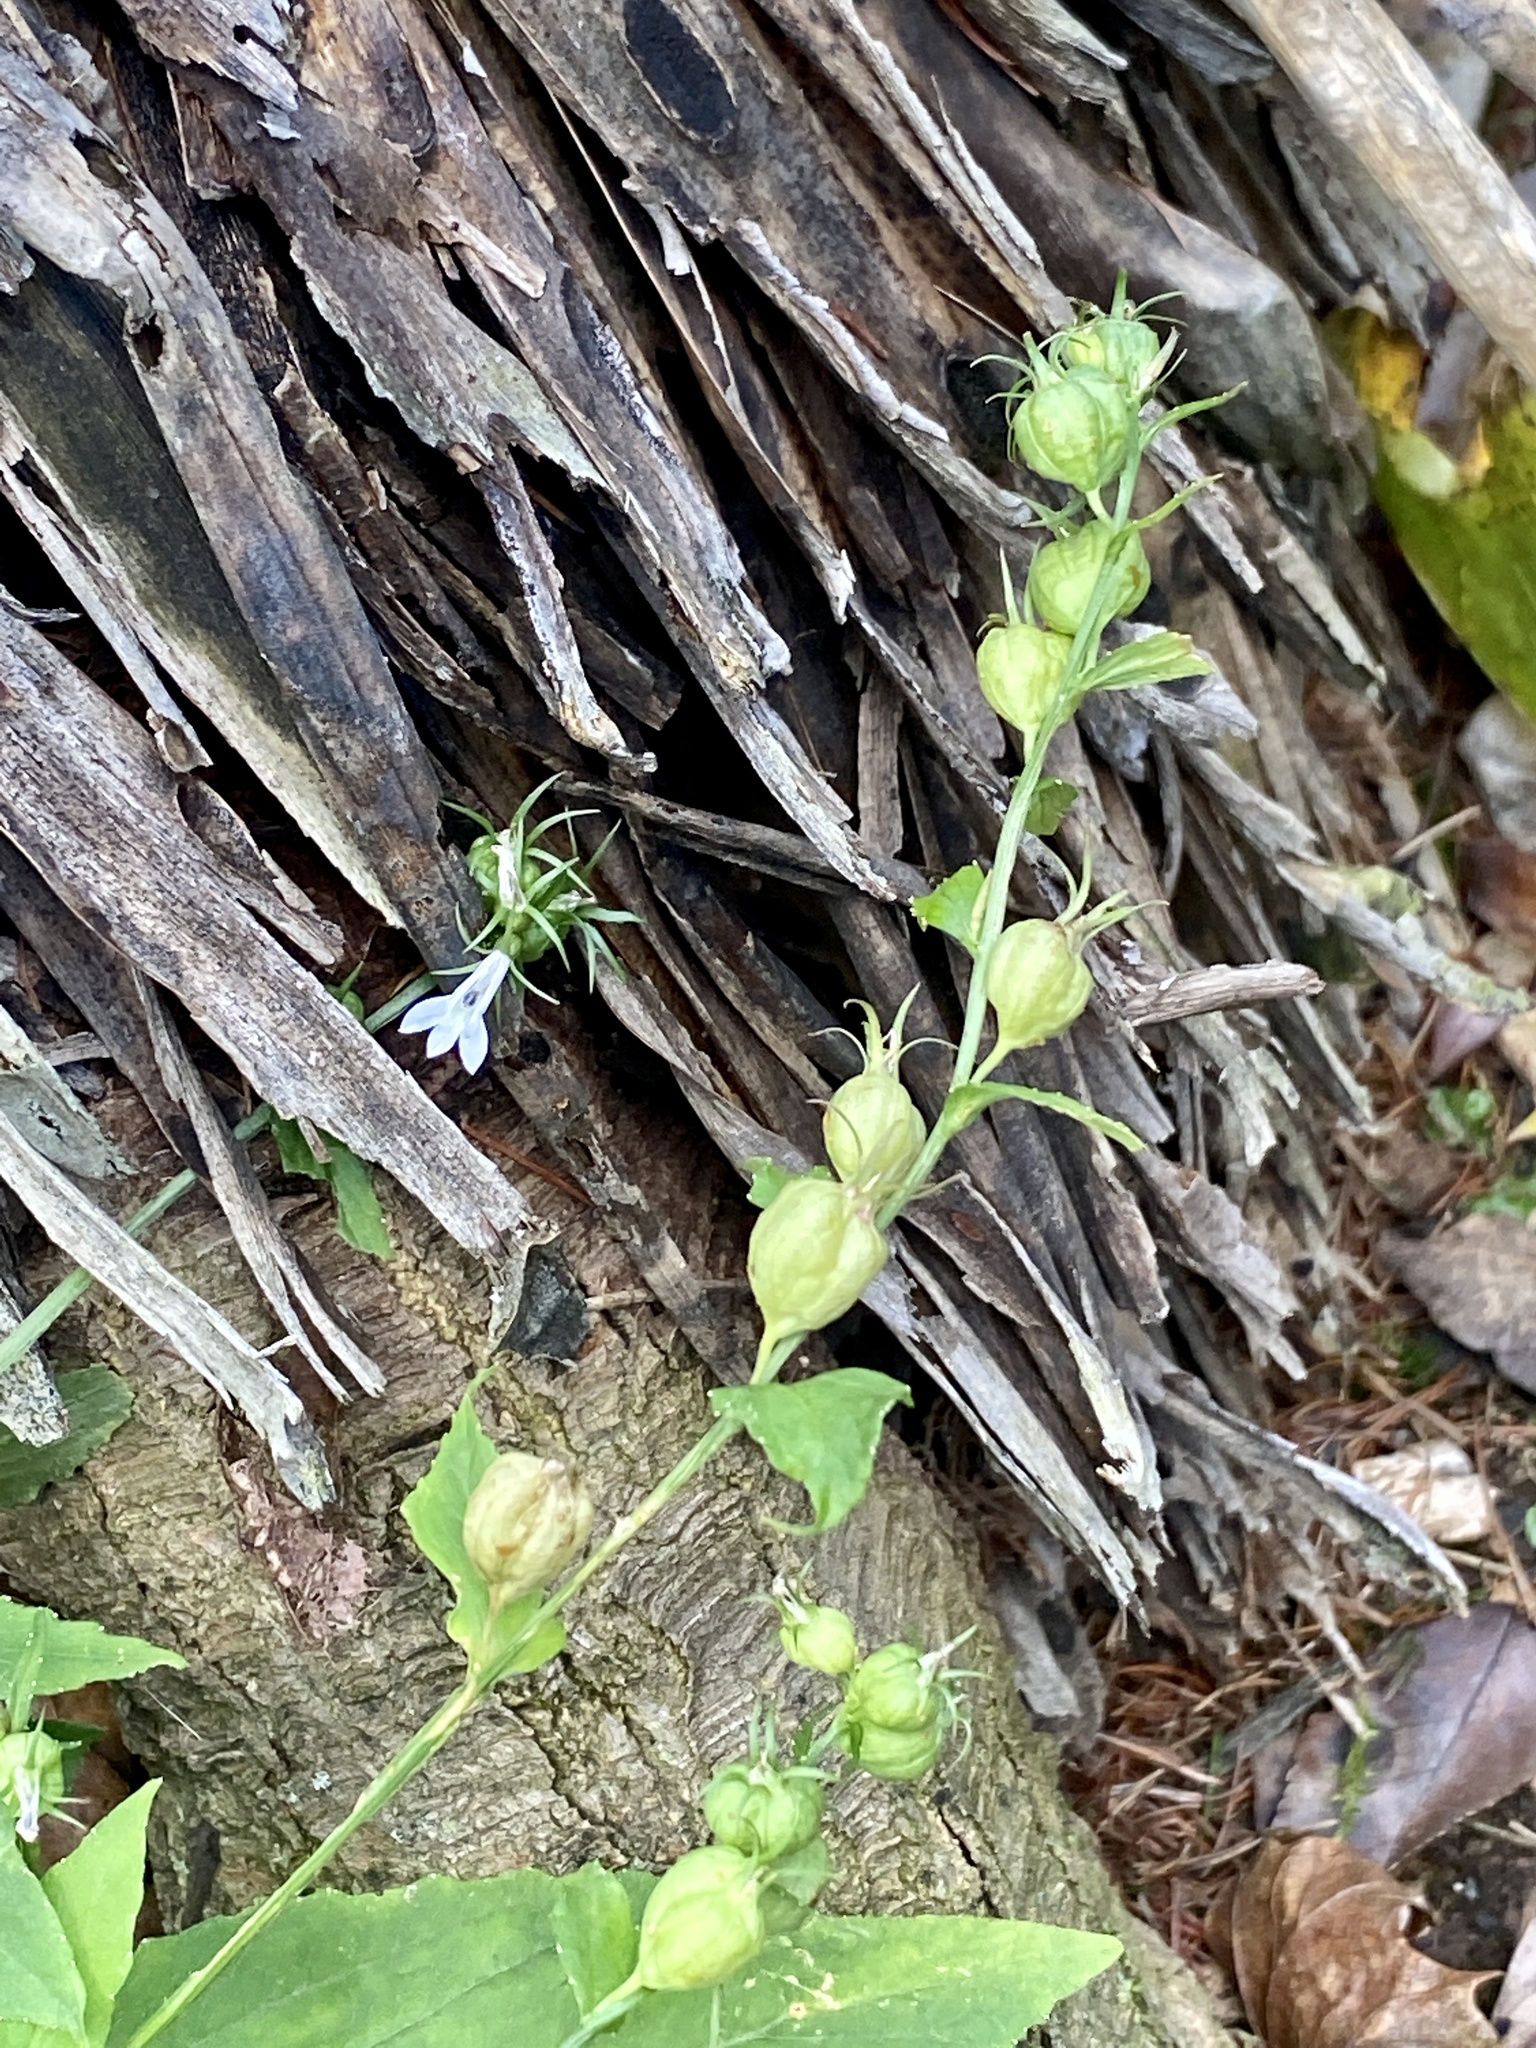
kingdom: Plantae
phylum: Tracheophyta
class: Magnoliopsida
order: Asterales
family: Campanulaceae
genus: Lobelia
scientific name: Lobelia inflata
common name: Indian tobacco
